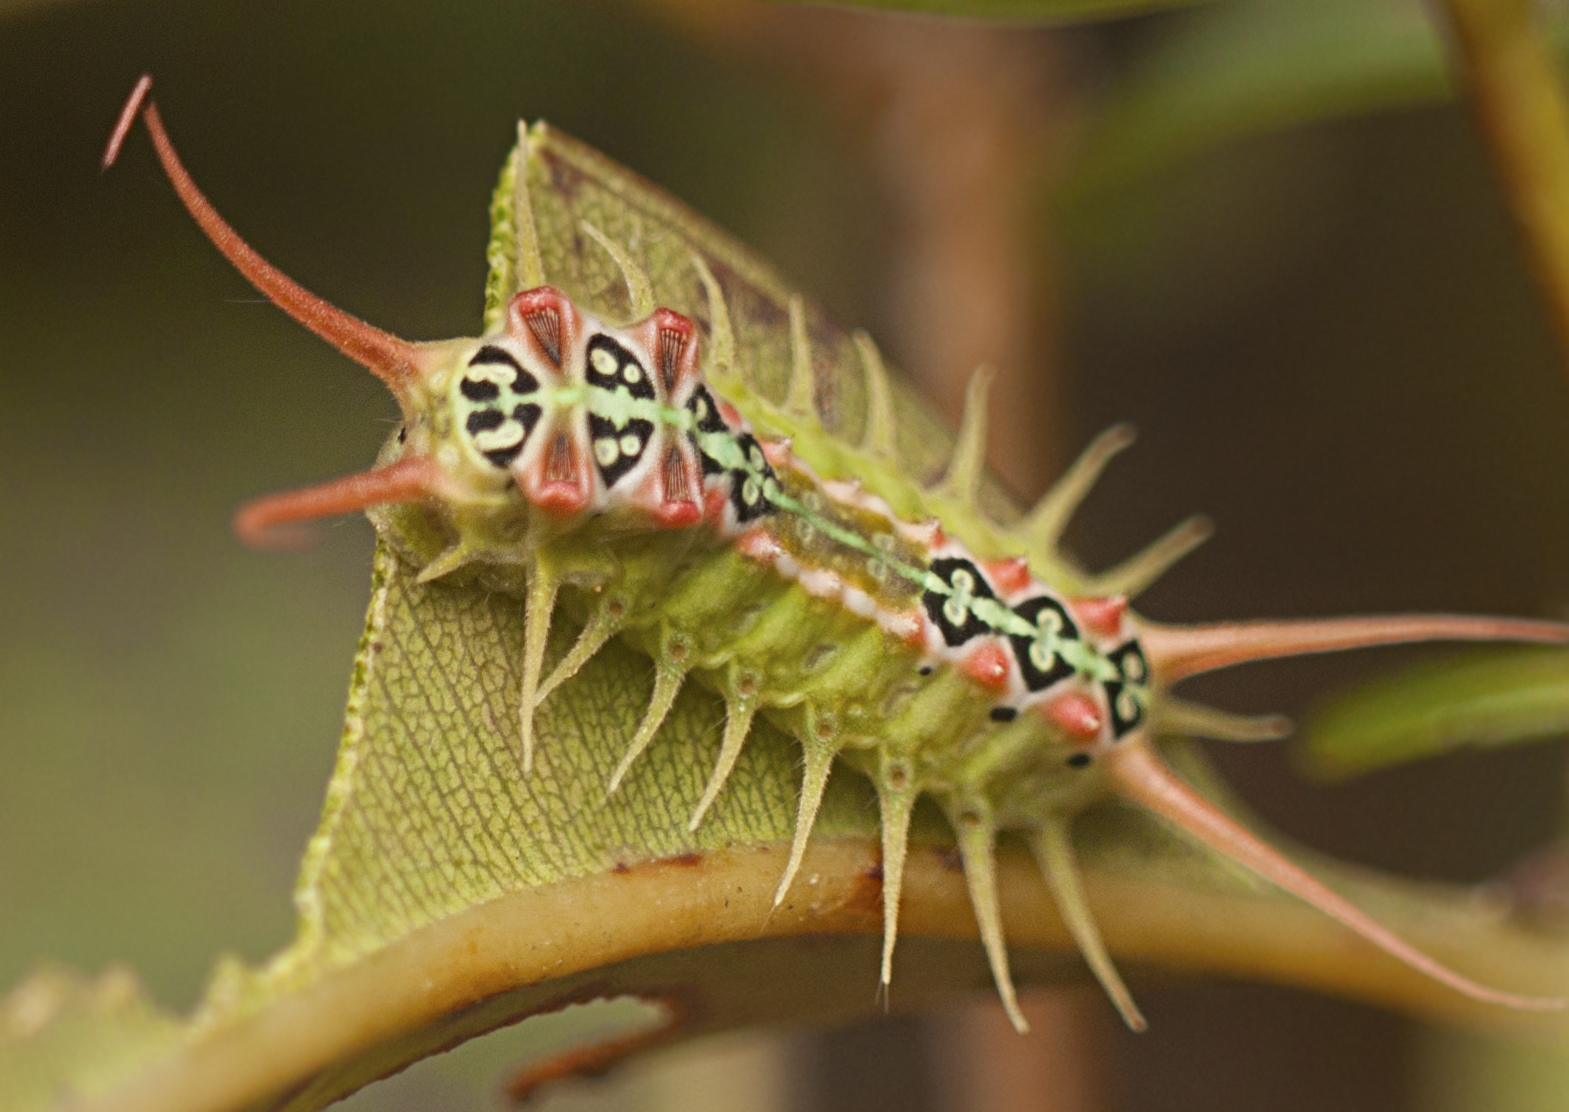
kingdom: Animalia
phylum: Arthropoda
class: Insecta
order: Lepidoptera
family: Limacodidae
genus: Doratifera
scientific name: Doratifera quadriguttata
